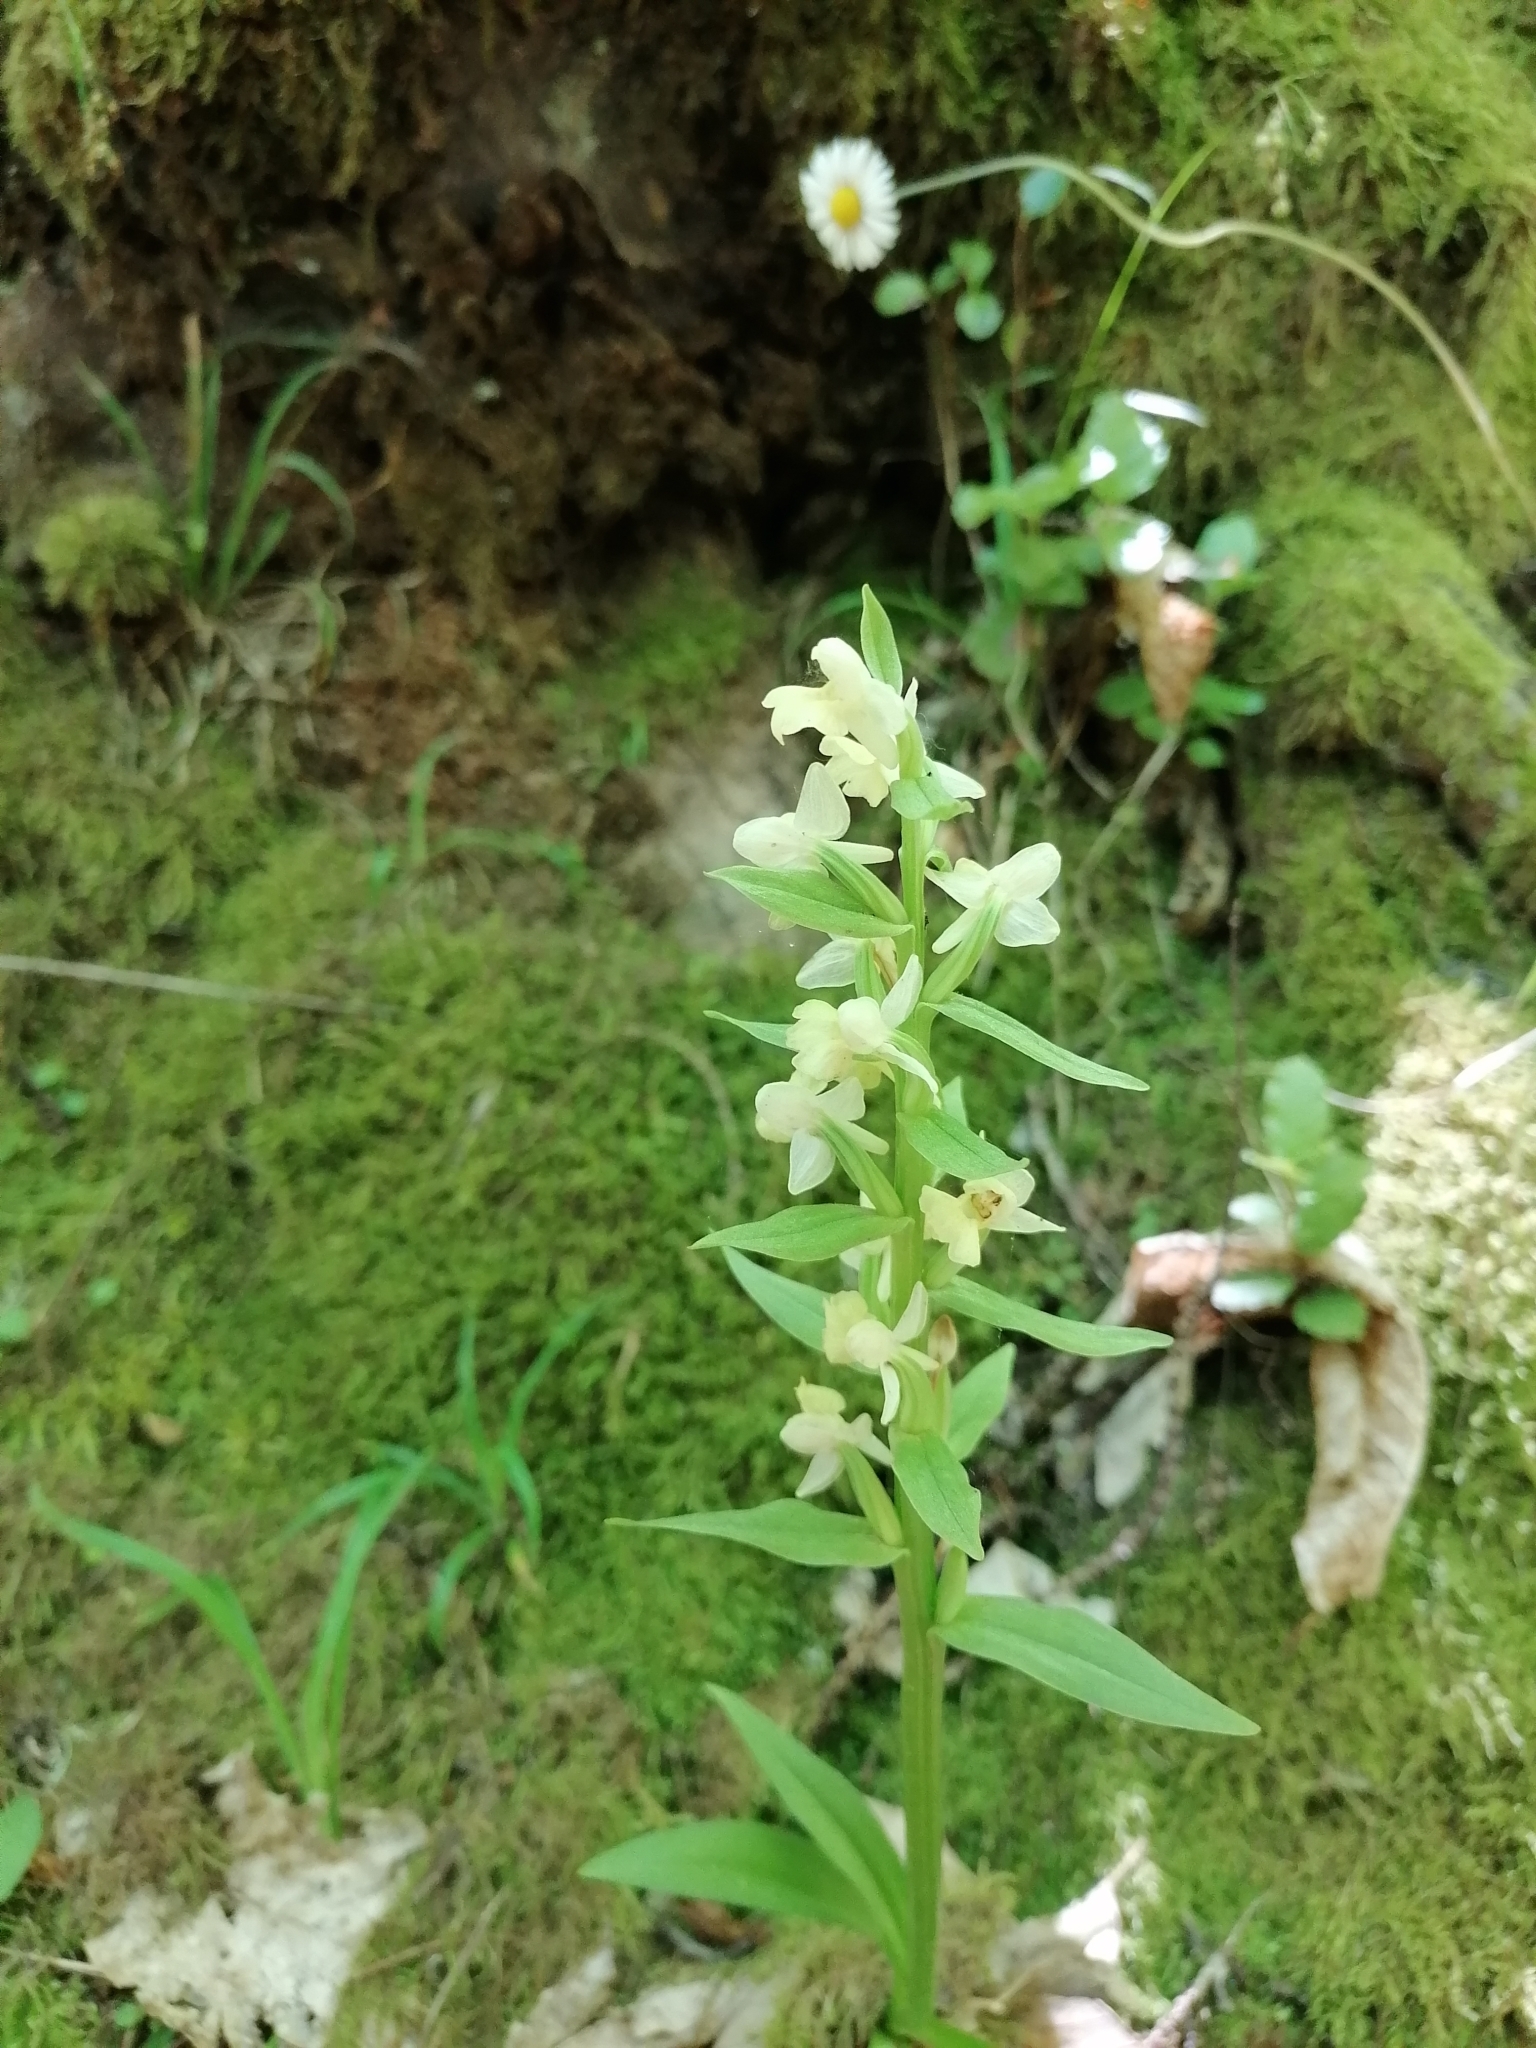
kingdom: Plantae
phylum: Tracheophyta
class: Liliopsida
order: Asparagales
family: Orchidaceae
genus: Dactylorhiza
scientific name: Dactylorhiza insularis
